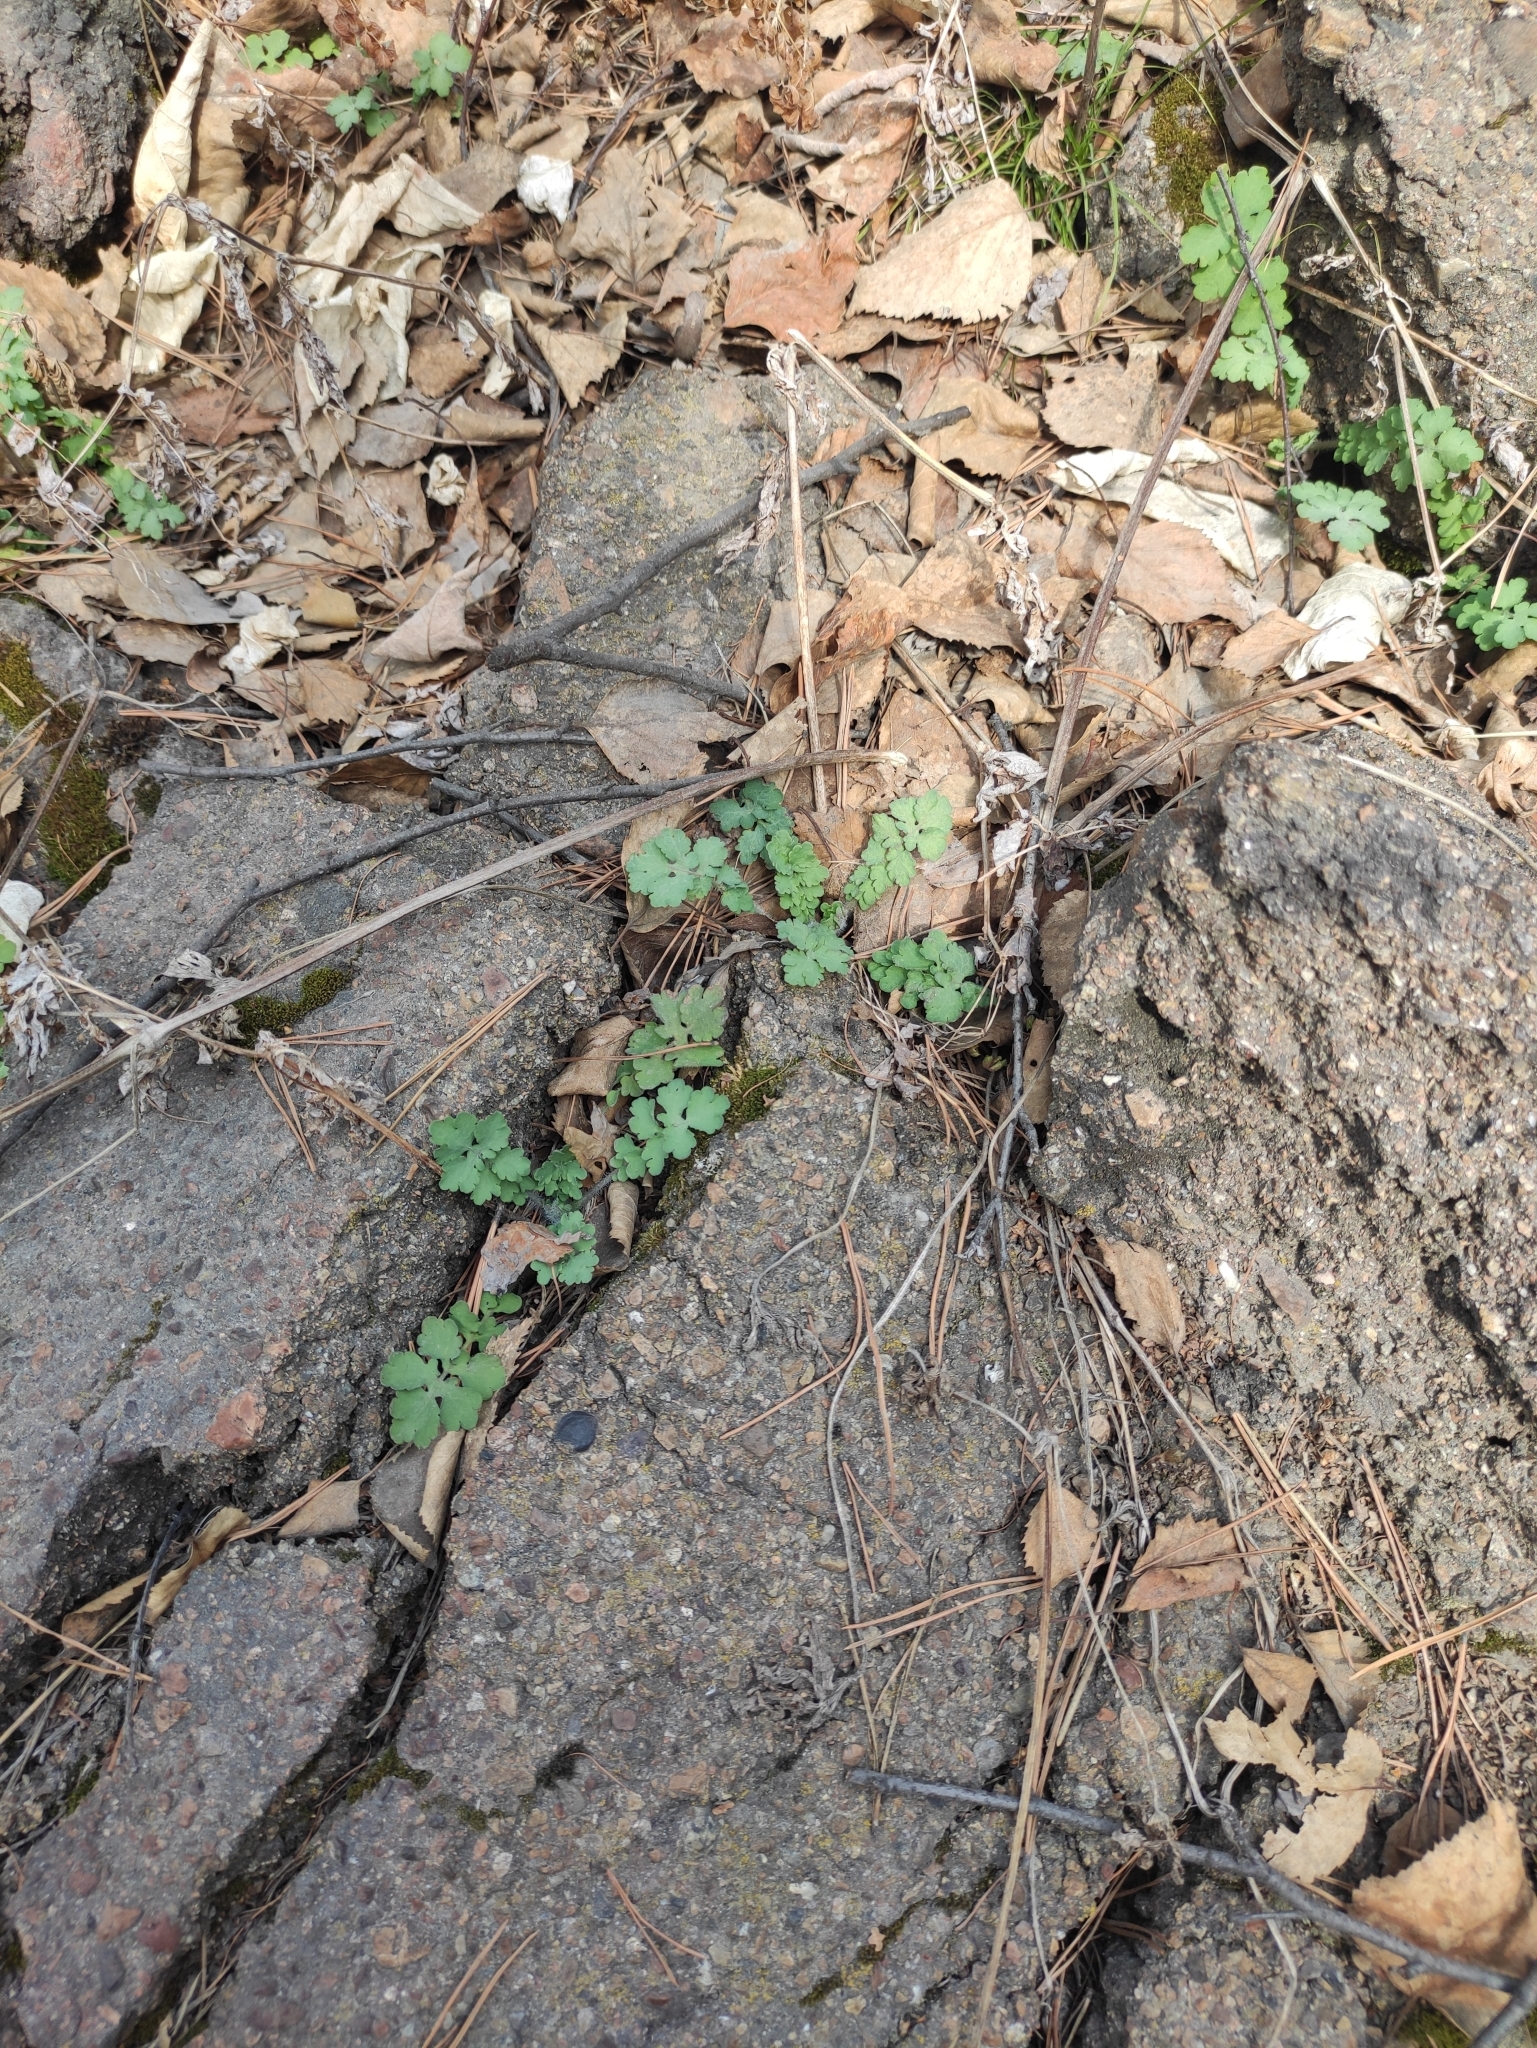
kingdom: Plantae
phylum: Tracheophyta
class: Magnoliopsida
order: Ranunculales
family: Papaveraceae
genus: Chelidonium
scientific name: Chelidonium majus
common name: Greater celandine
